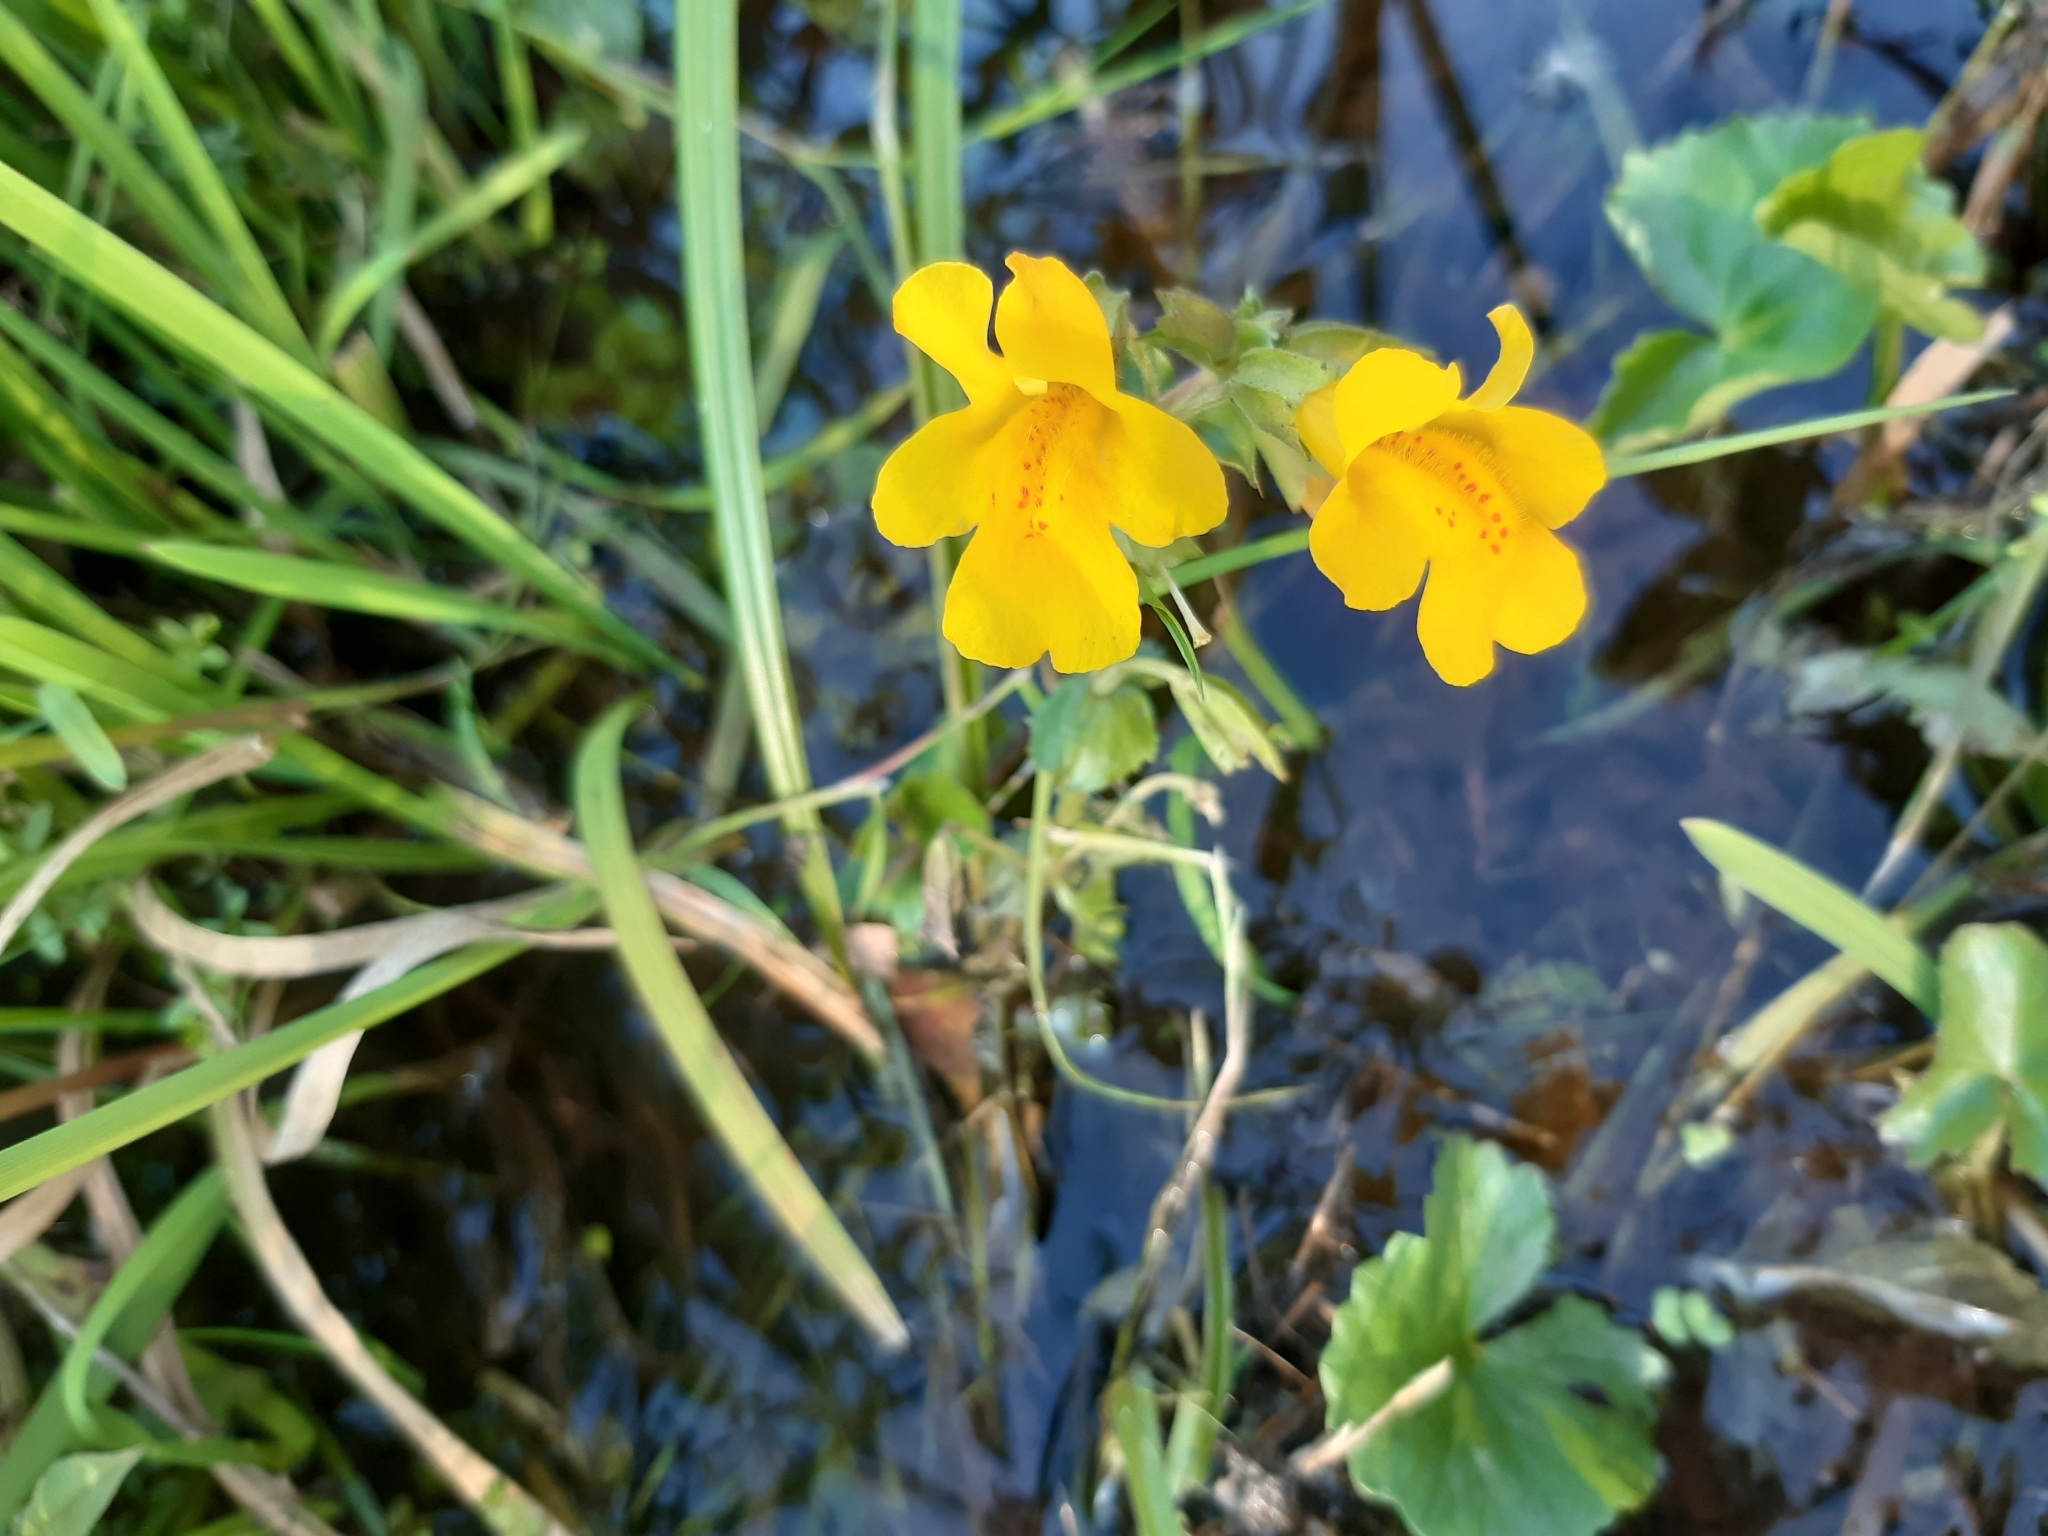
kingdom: Plantae
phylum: Tracheophyta
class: Magnoliopsida
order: Lamiales
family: Phrymaceae
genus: Erythranthe
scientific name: Erythranthe guttata
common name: Monkeyflower
